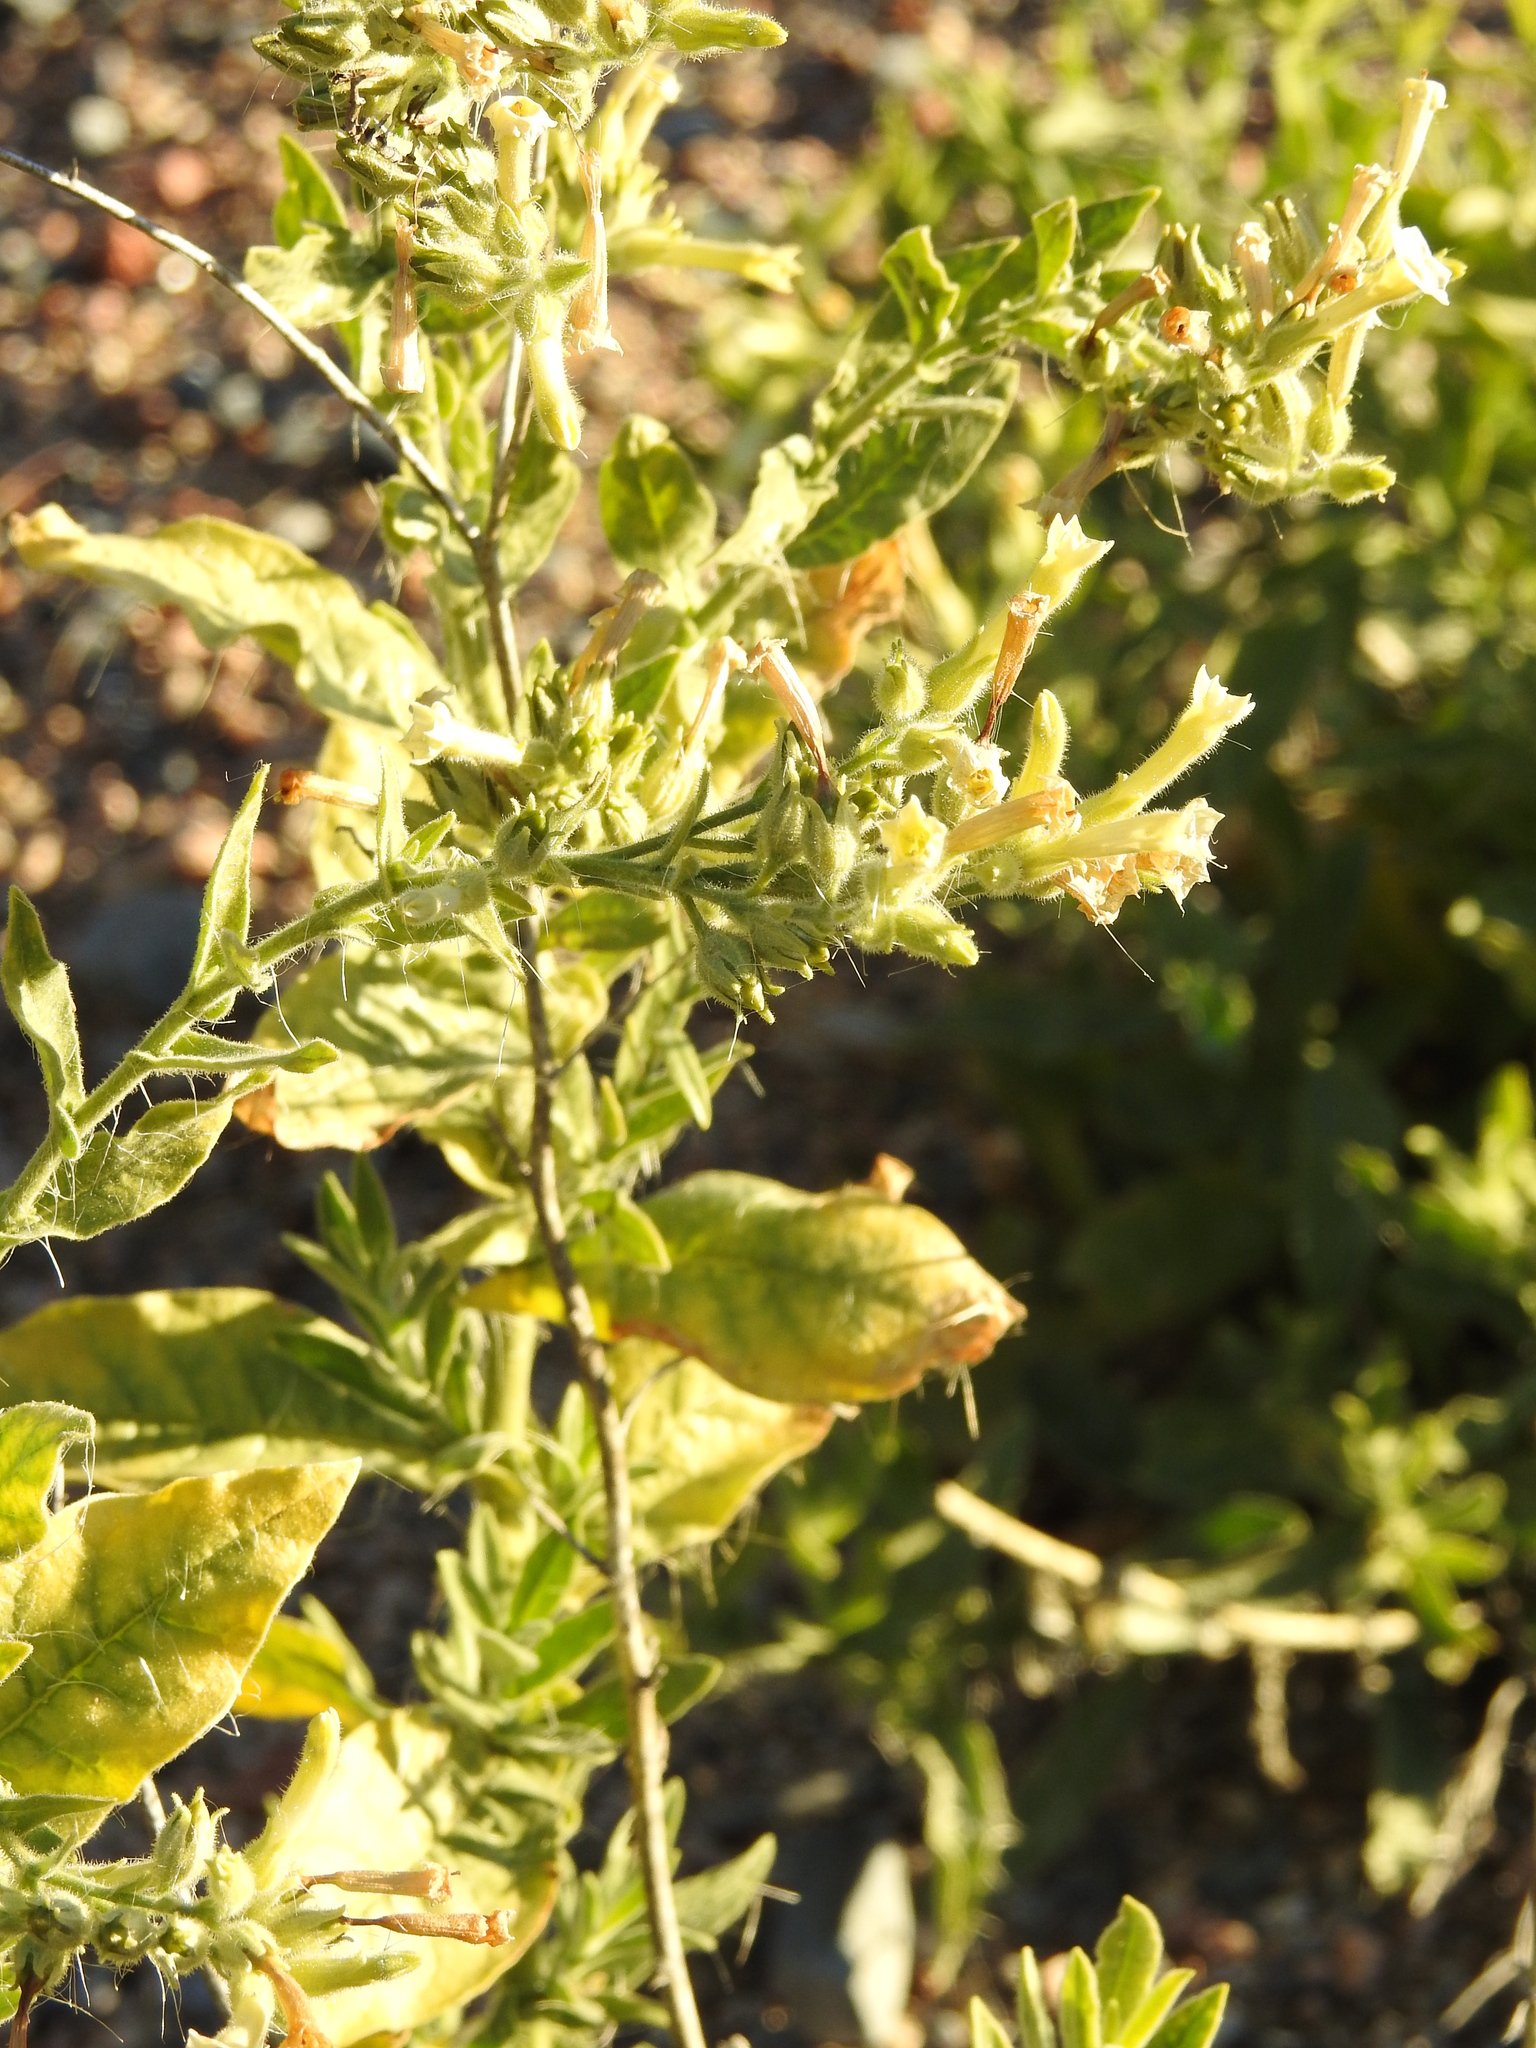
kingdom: Plantae
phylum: Tracheophyta
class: Magnoliopsida
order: Solanales
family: Solanaceae
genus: Nicotiana
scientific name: Nicotiana obtusifolia
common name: Desert tobacco
